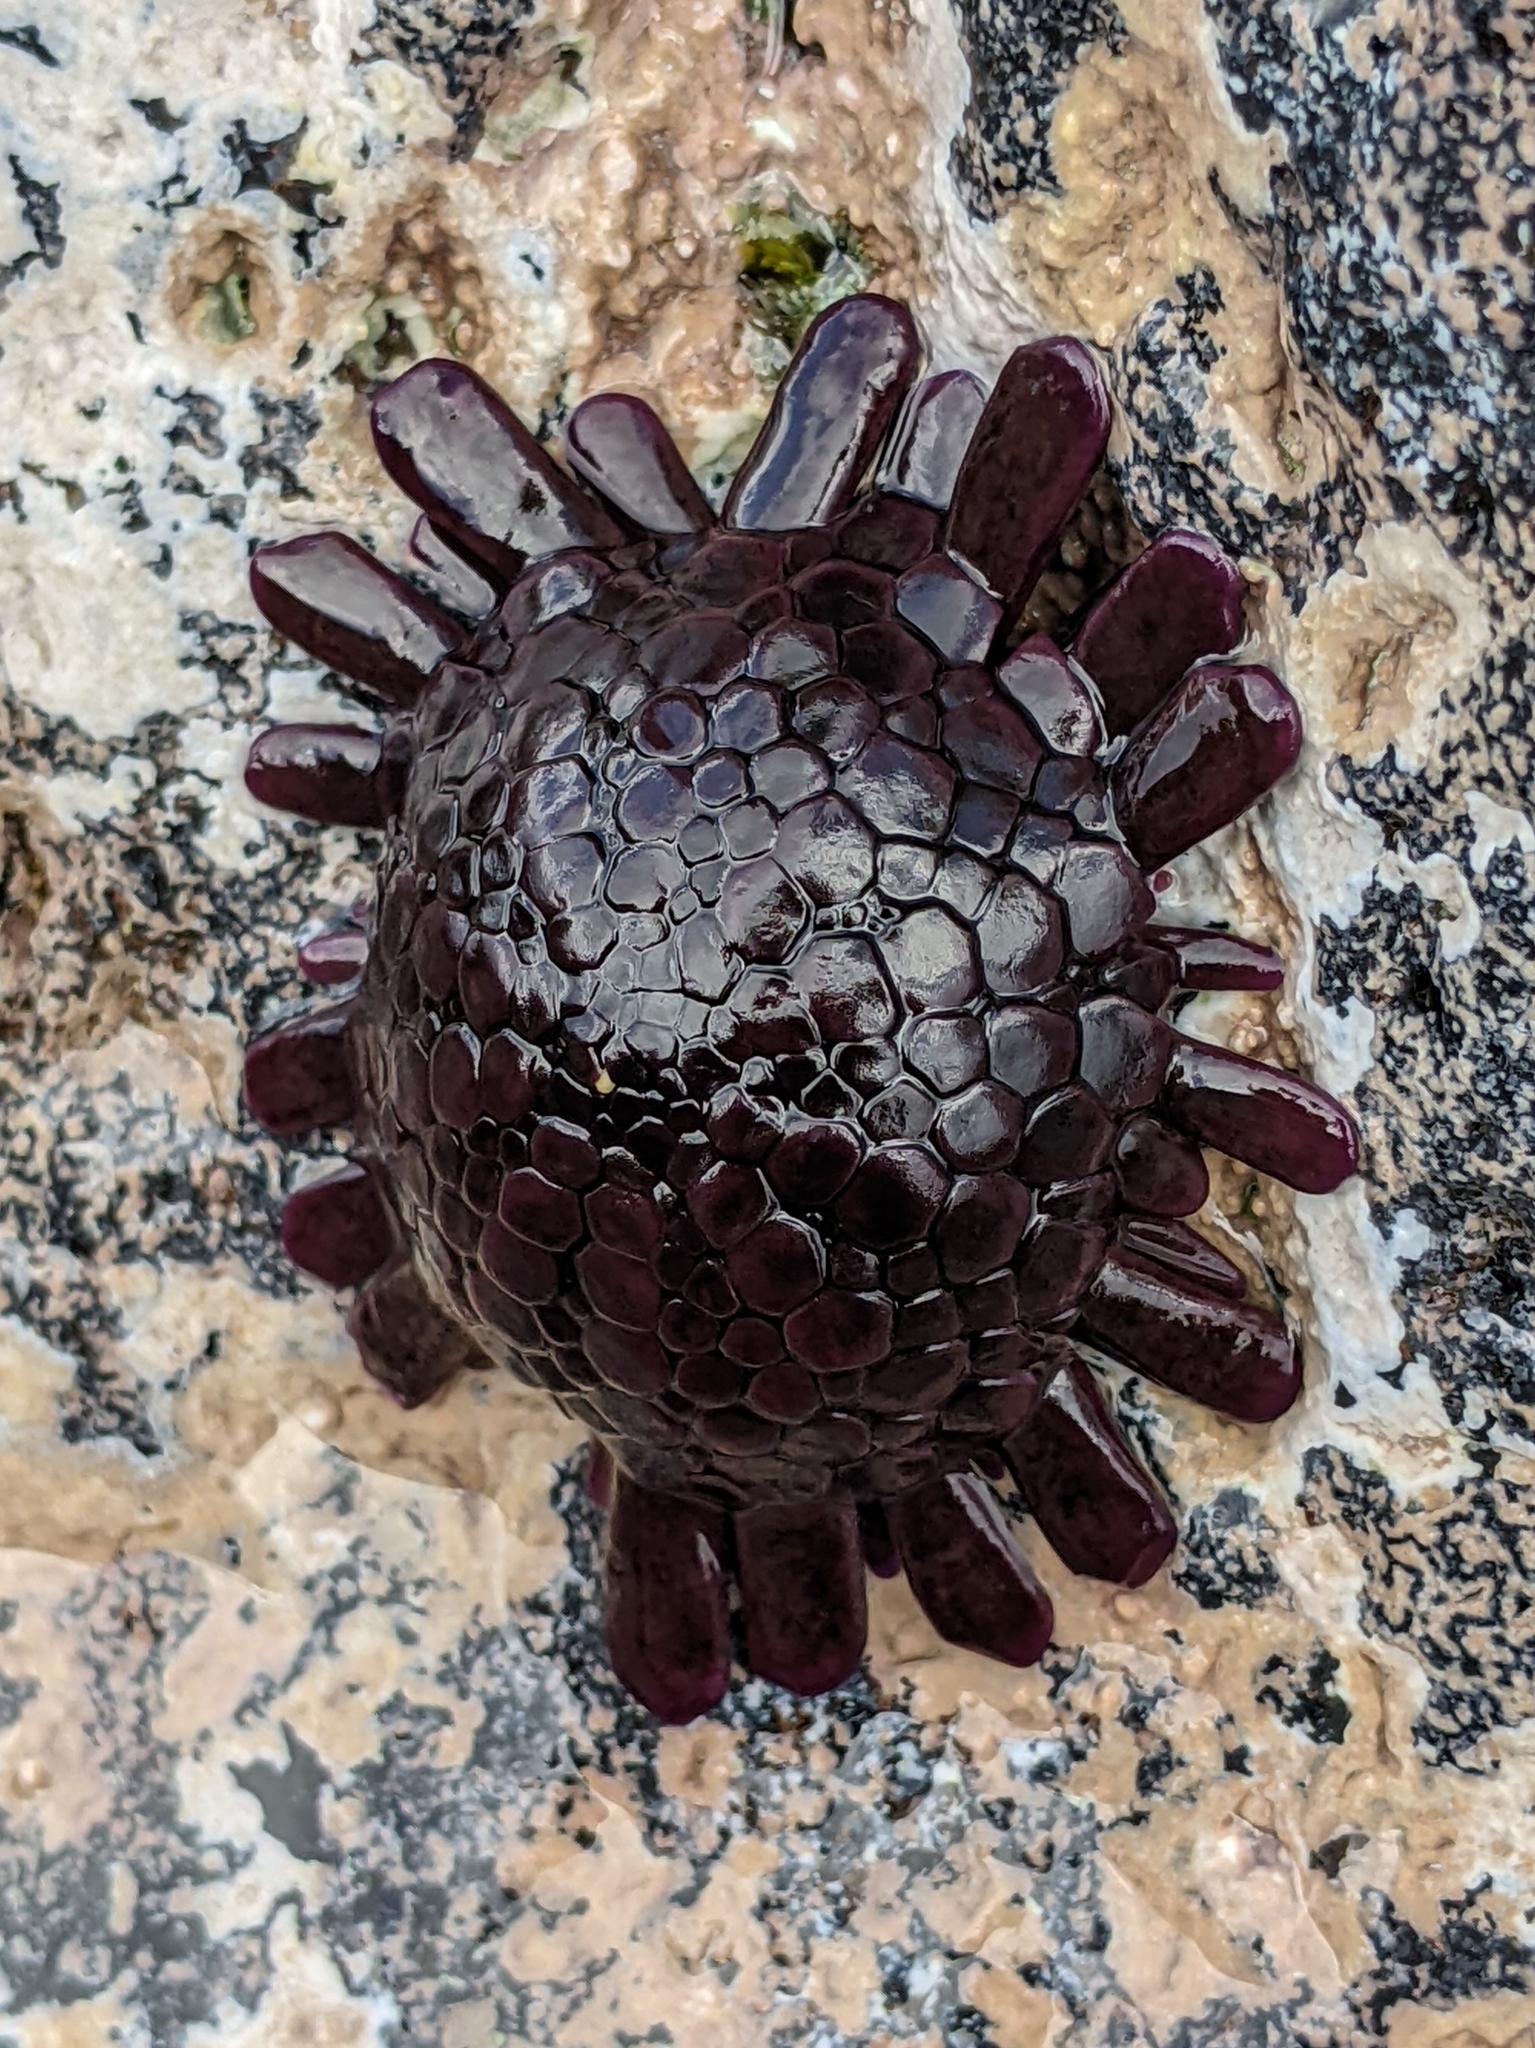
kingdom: Animalia
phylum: Echinodermata
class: Echinoidea
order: Camarodonta
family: Echinometridae
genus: Colobocentrotus
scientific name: Colobocentrotus atratus
